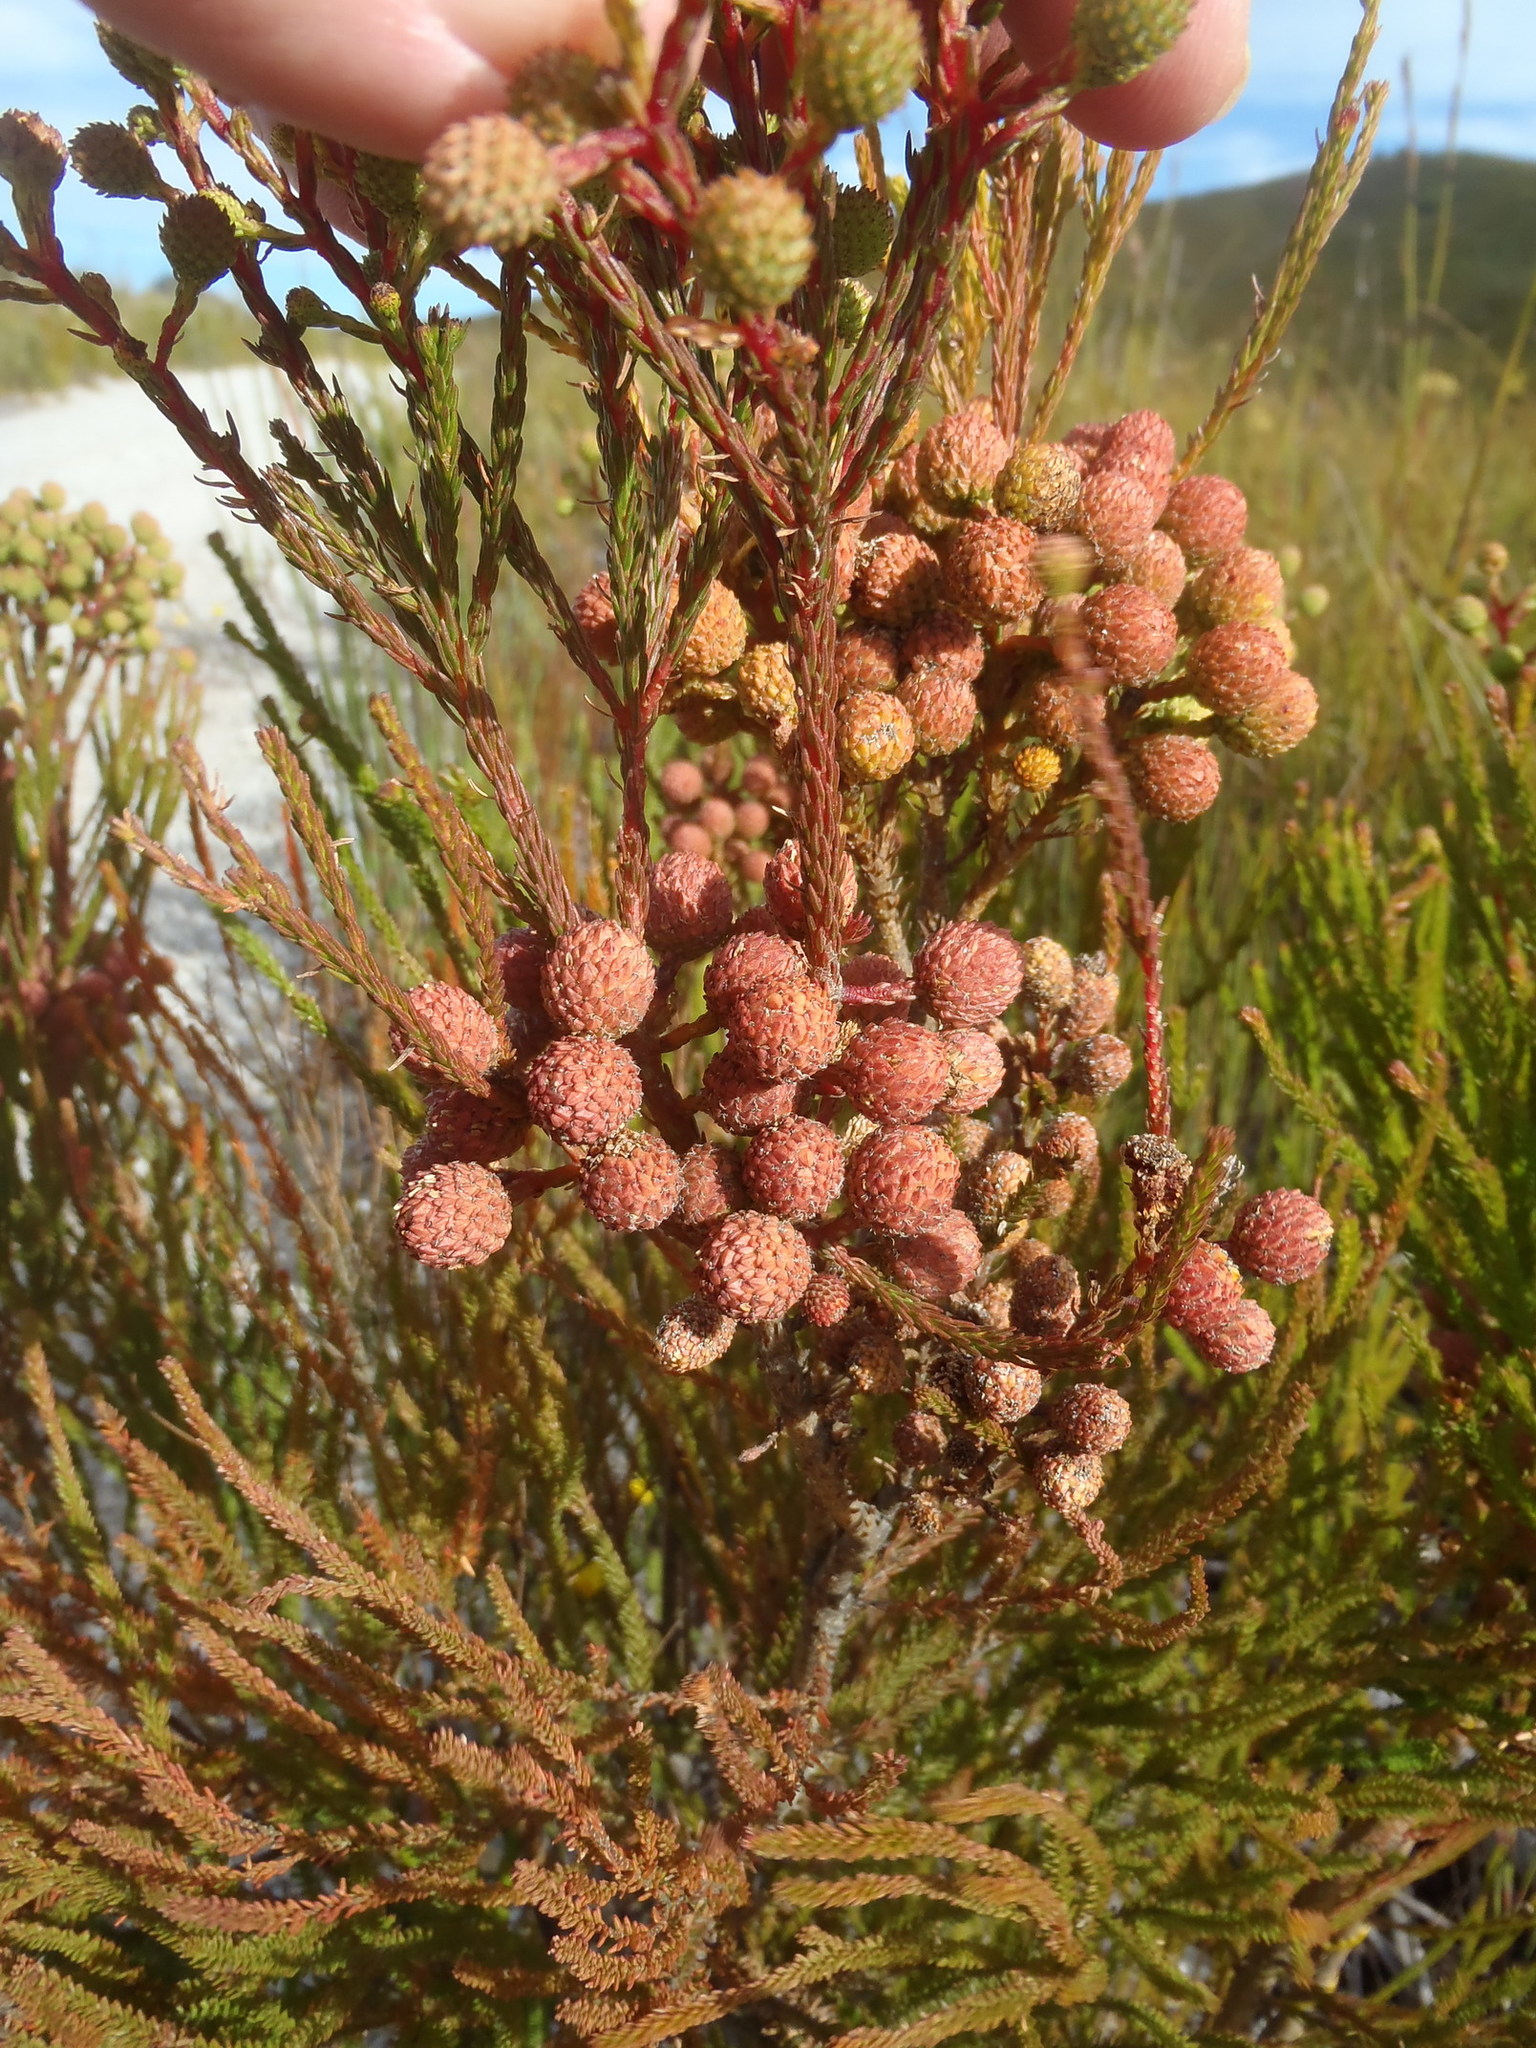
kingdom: Plantae
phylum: Tracheophyta
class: Magnoliopsida
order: Bruniales
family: Bruniaceae
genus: Berzelia
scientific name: Berzelia intermedia
